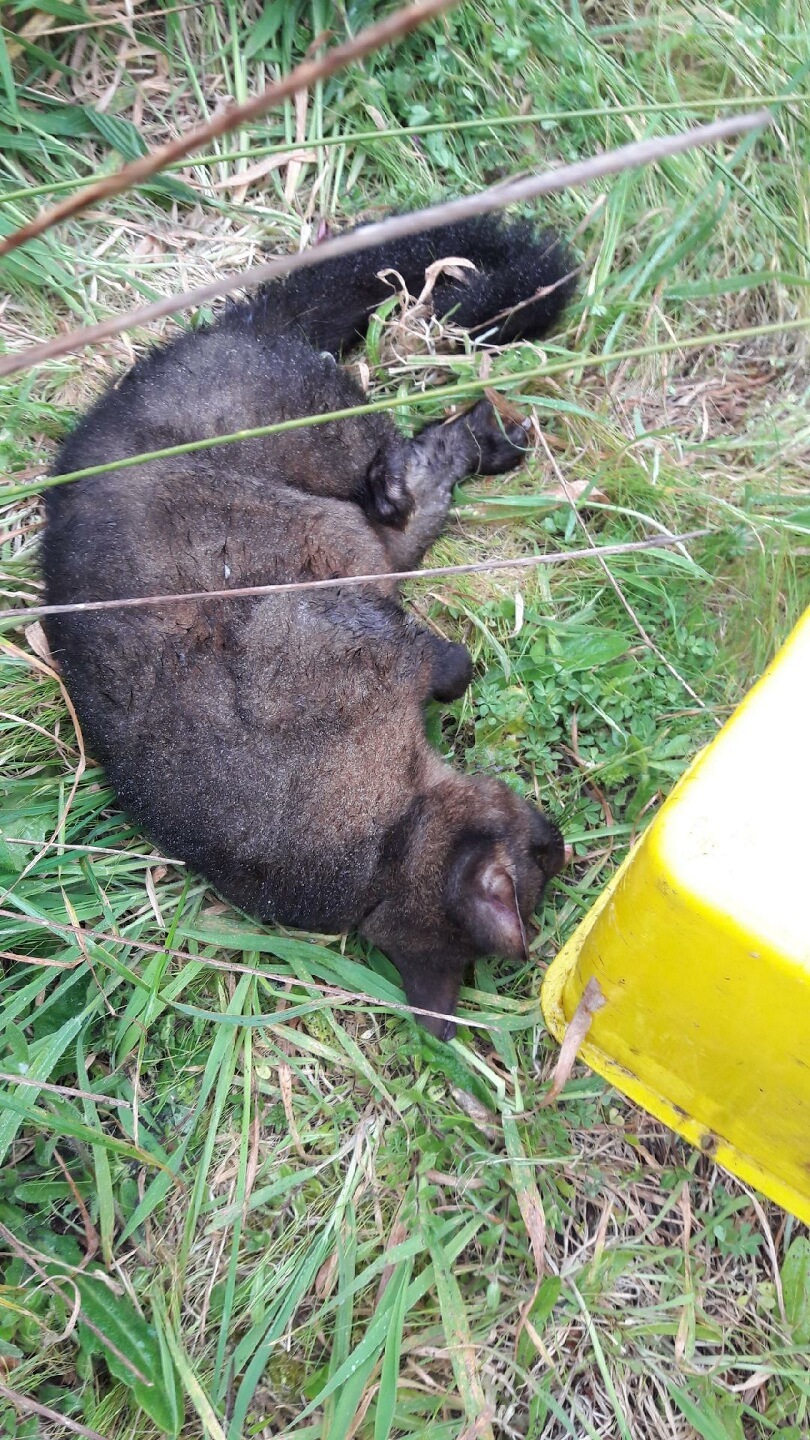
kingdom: Animalia
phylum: Chordata
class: Mammalia
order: Diprotodontia
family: Phalangeridae
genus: Trichosurus
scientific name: Trichosurus vulpecula
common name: Common brushtail
